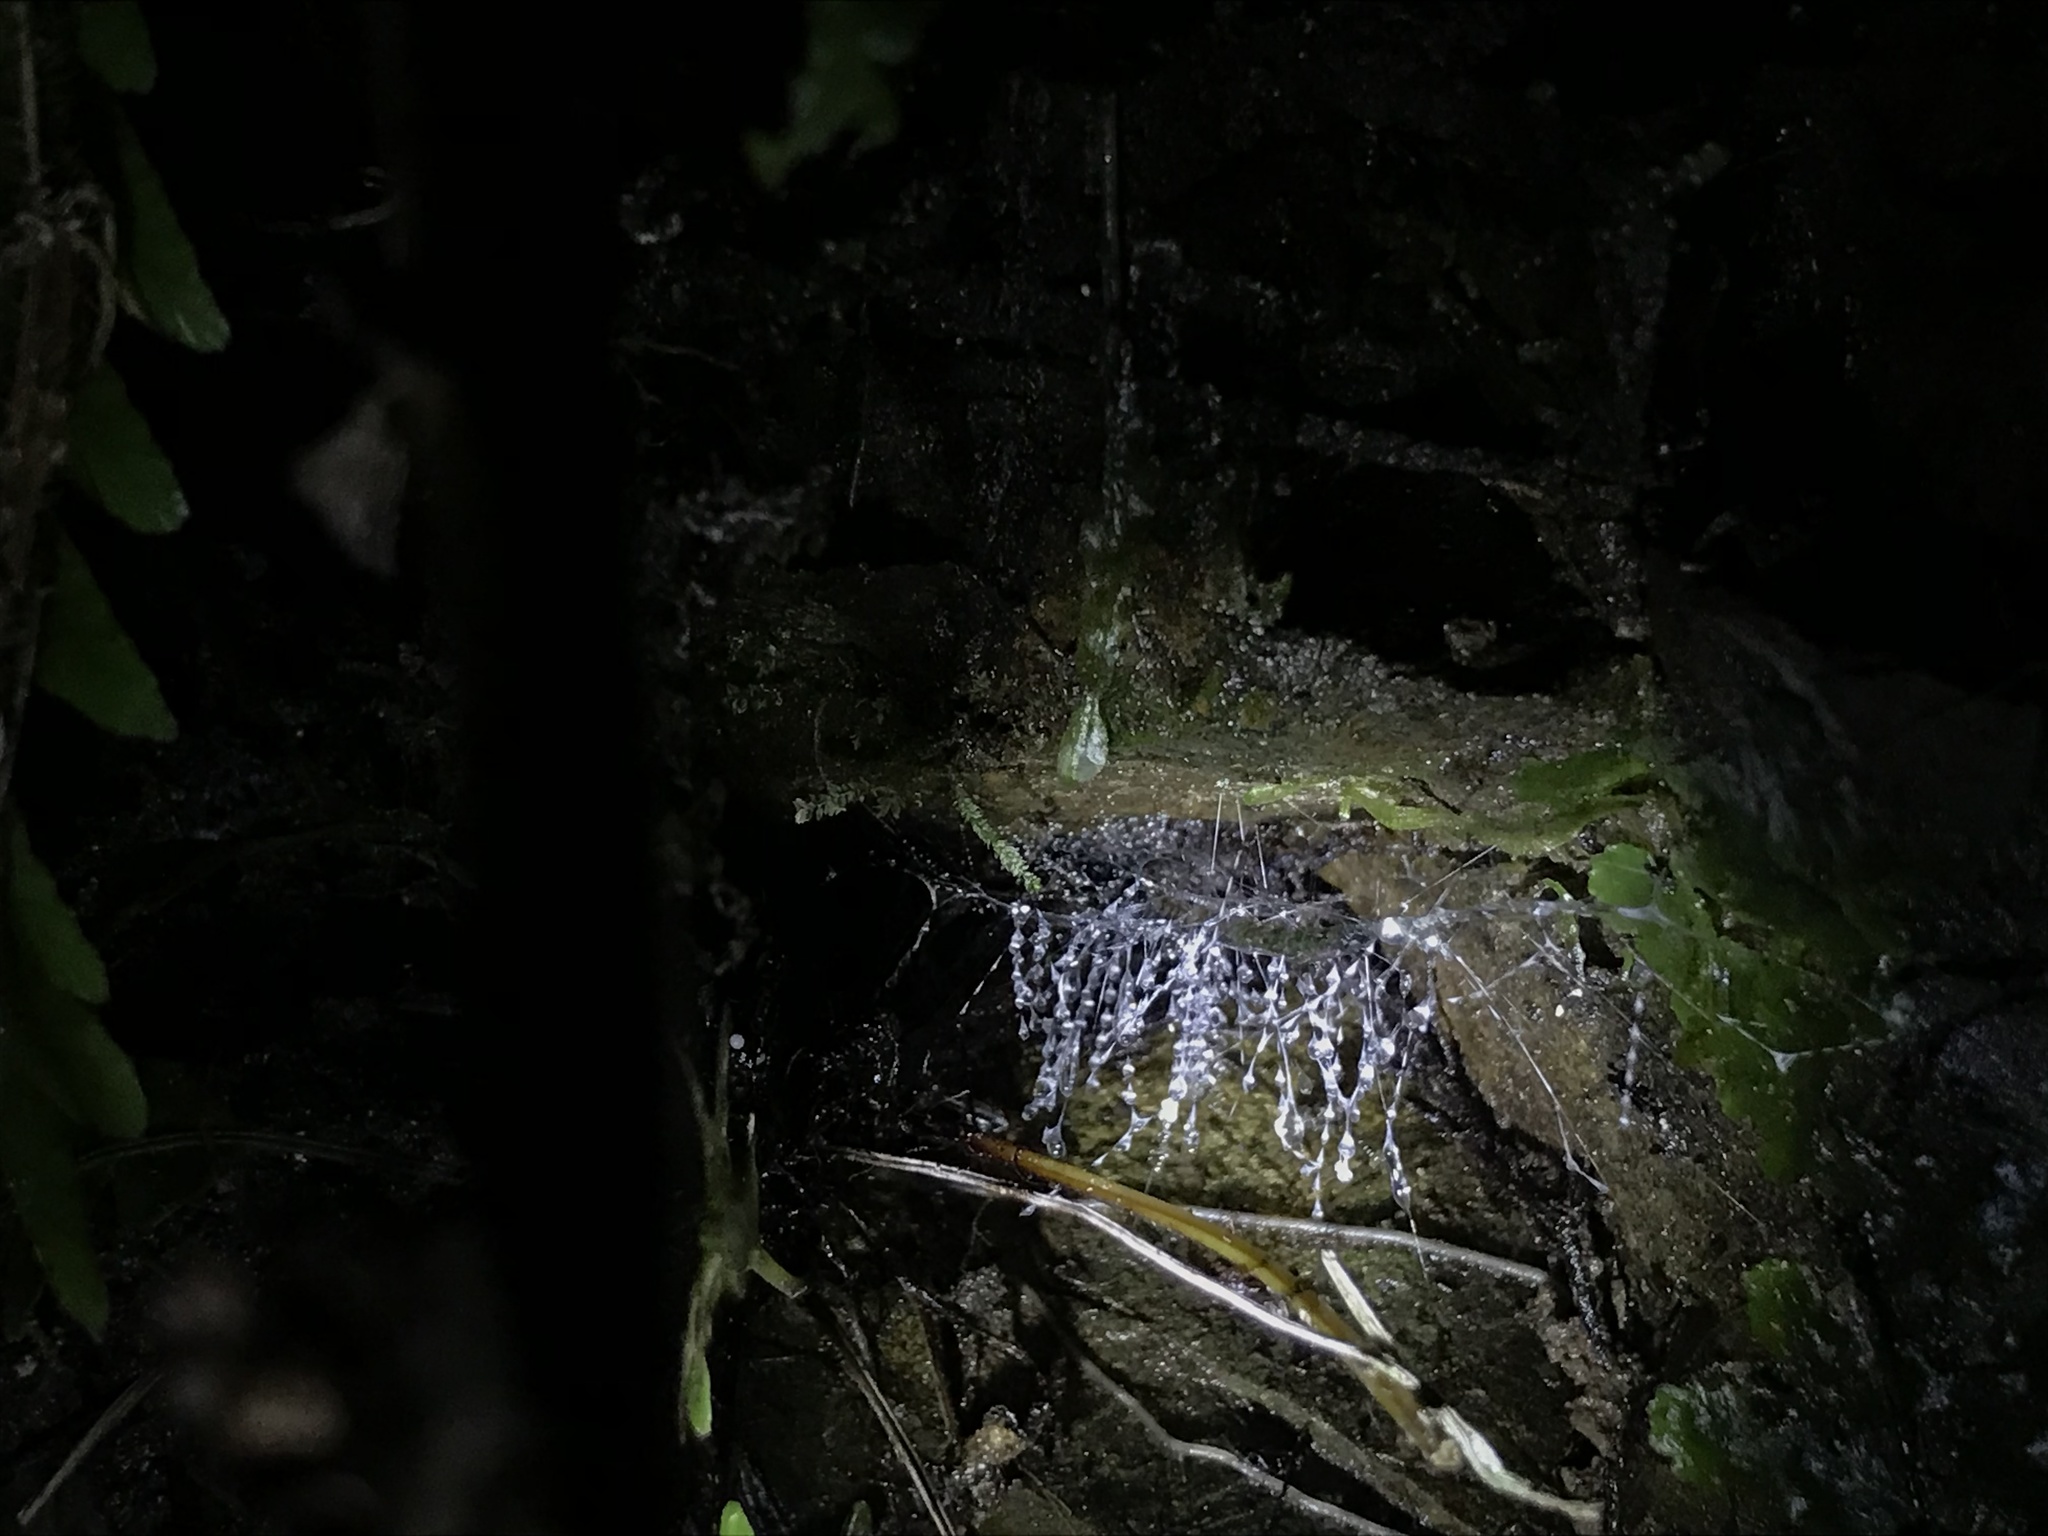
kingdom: Animalia
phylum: Arthropoda
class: Insecta
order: Diptera
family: Keroplatidae
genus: Arachnocampa
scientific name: Arachnocampa luminosa
